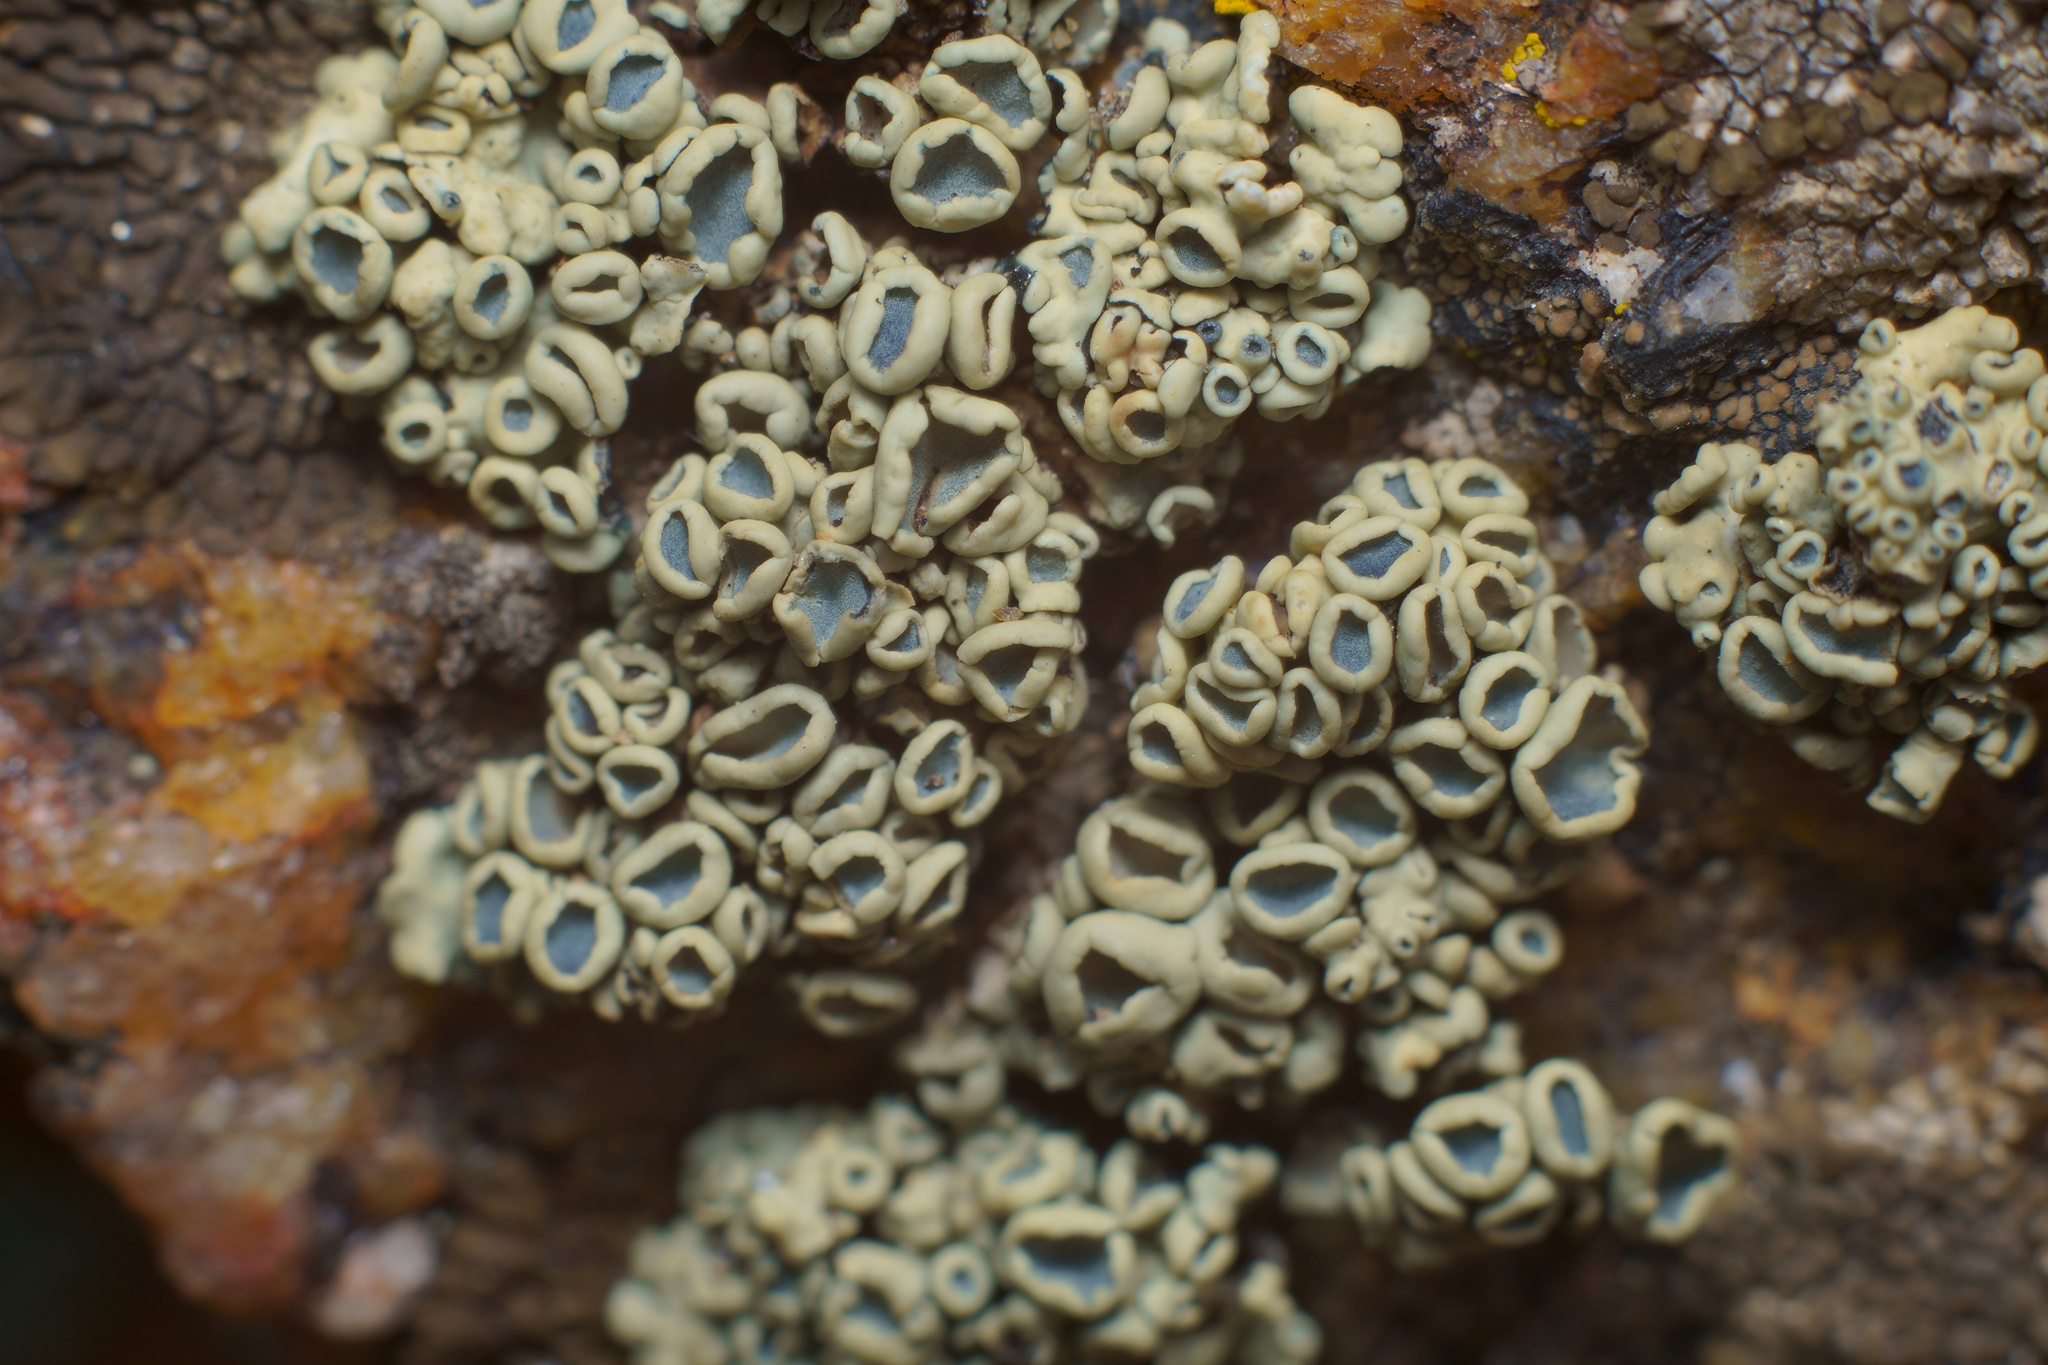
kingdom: Fungi
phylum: Ascomycota
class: Lecanoromycetes
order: Lecanorales
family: Lecanoraceae
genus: Rhizoplaca
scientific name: Rhizoplaca melanophthalma
